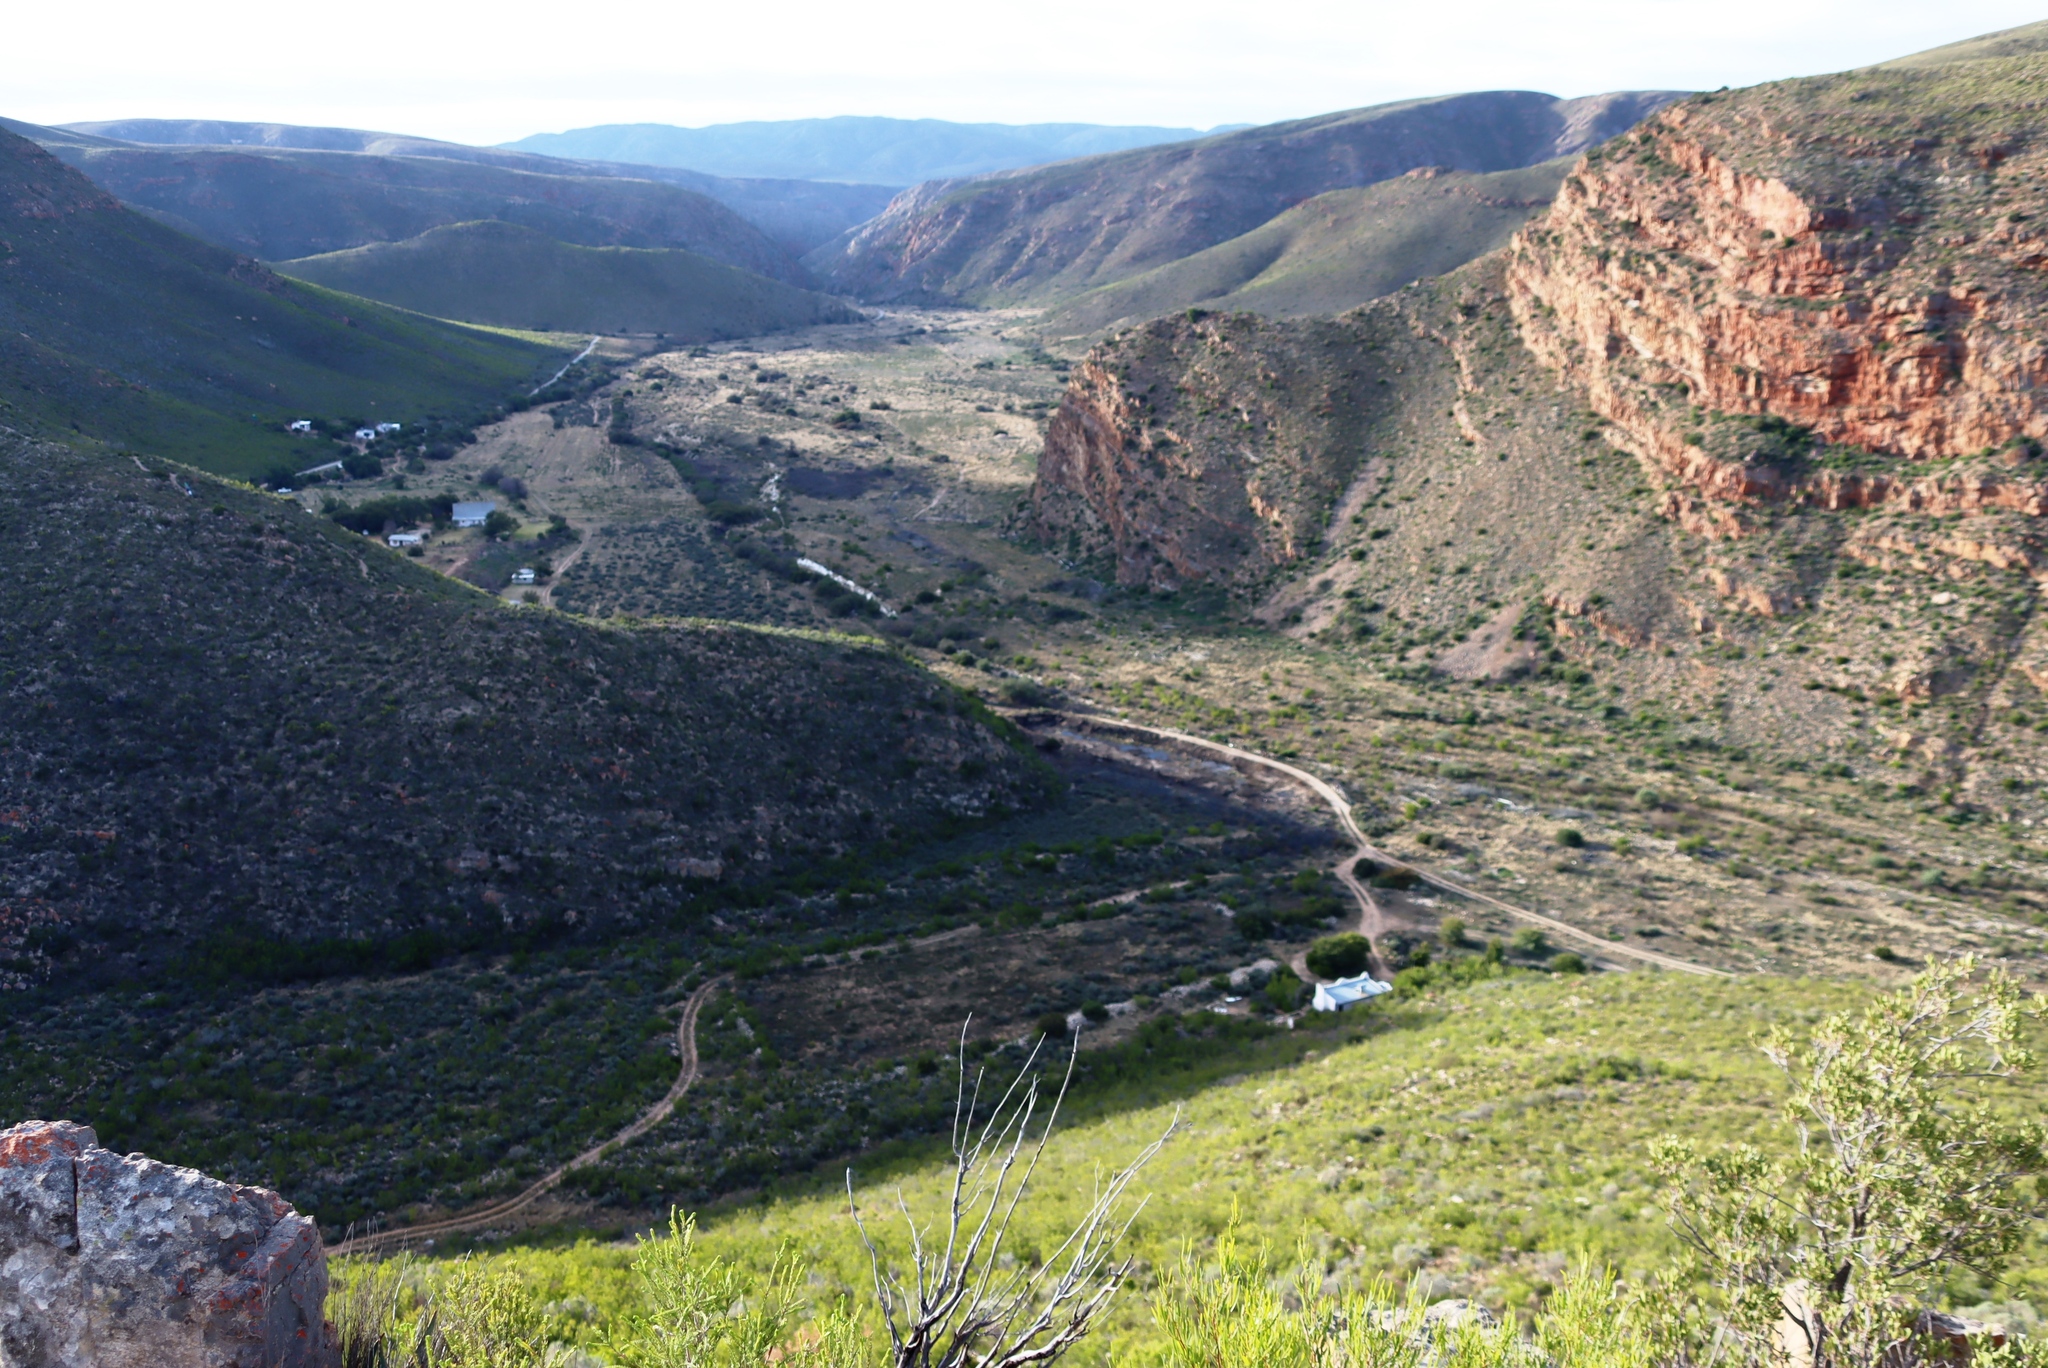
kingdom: Plantae
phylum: Tracheophyta
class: Magnoliopsida
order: Malvales
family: Thymelaeaceae
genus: Passerina
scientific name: Passerina obtusifolia
